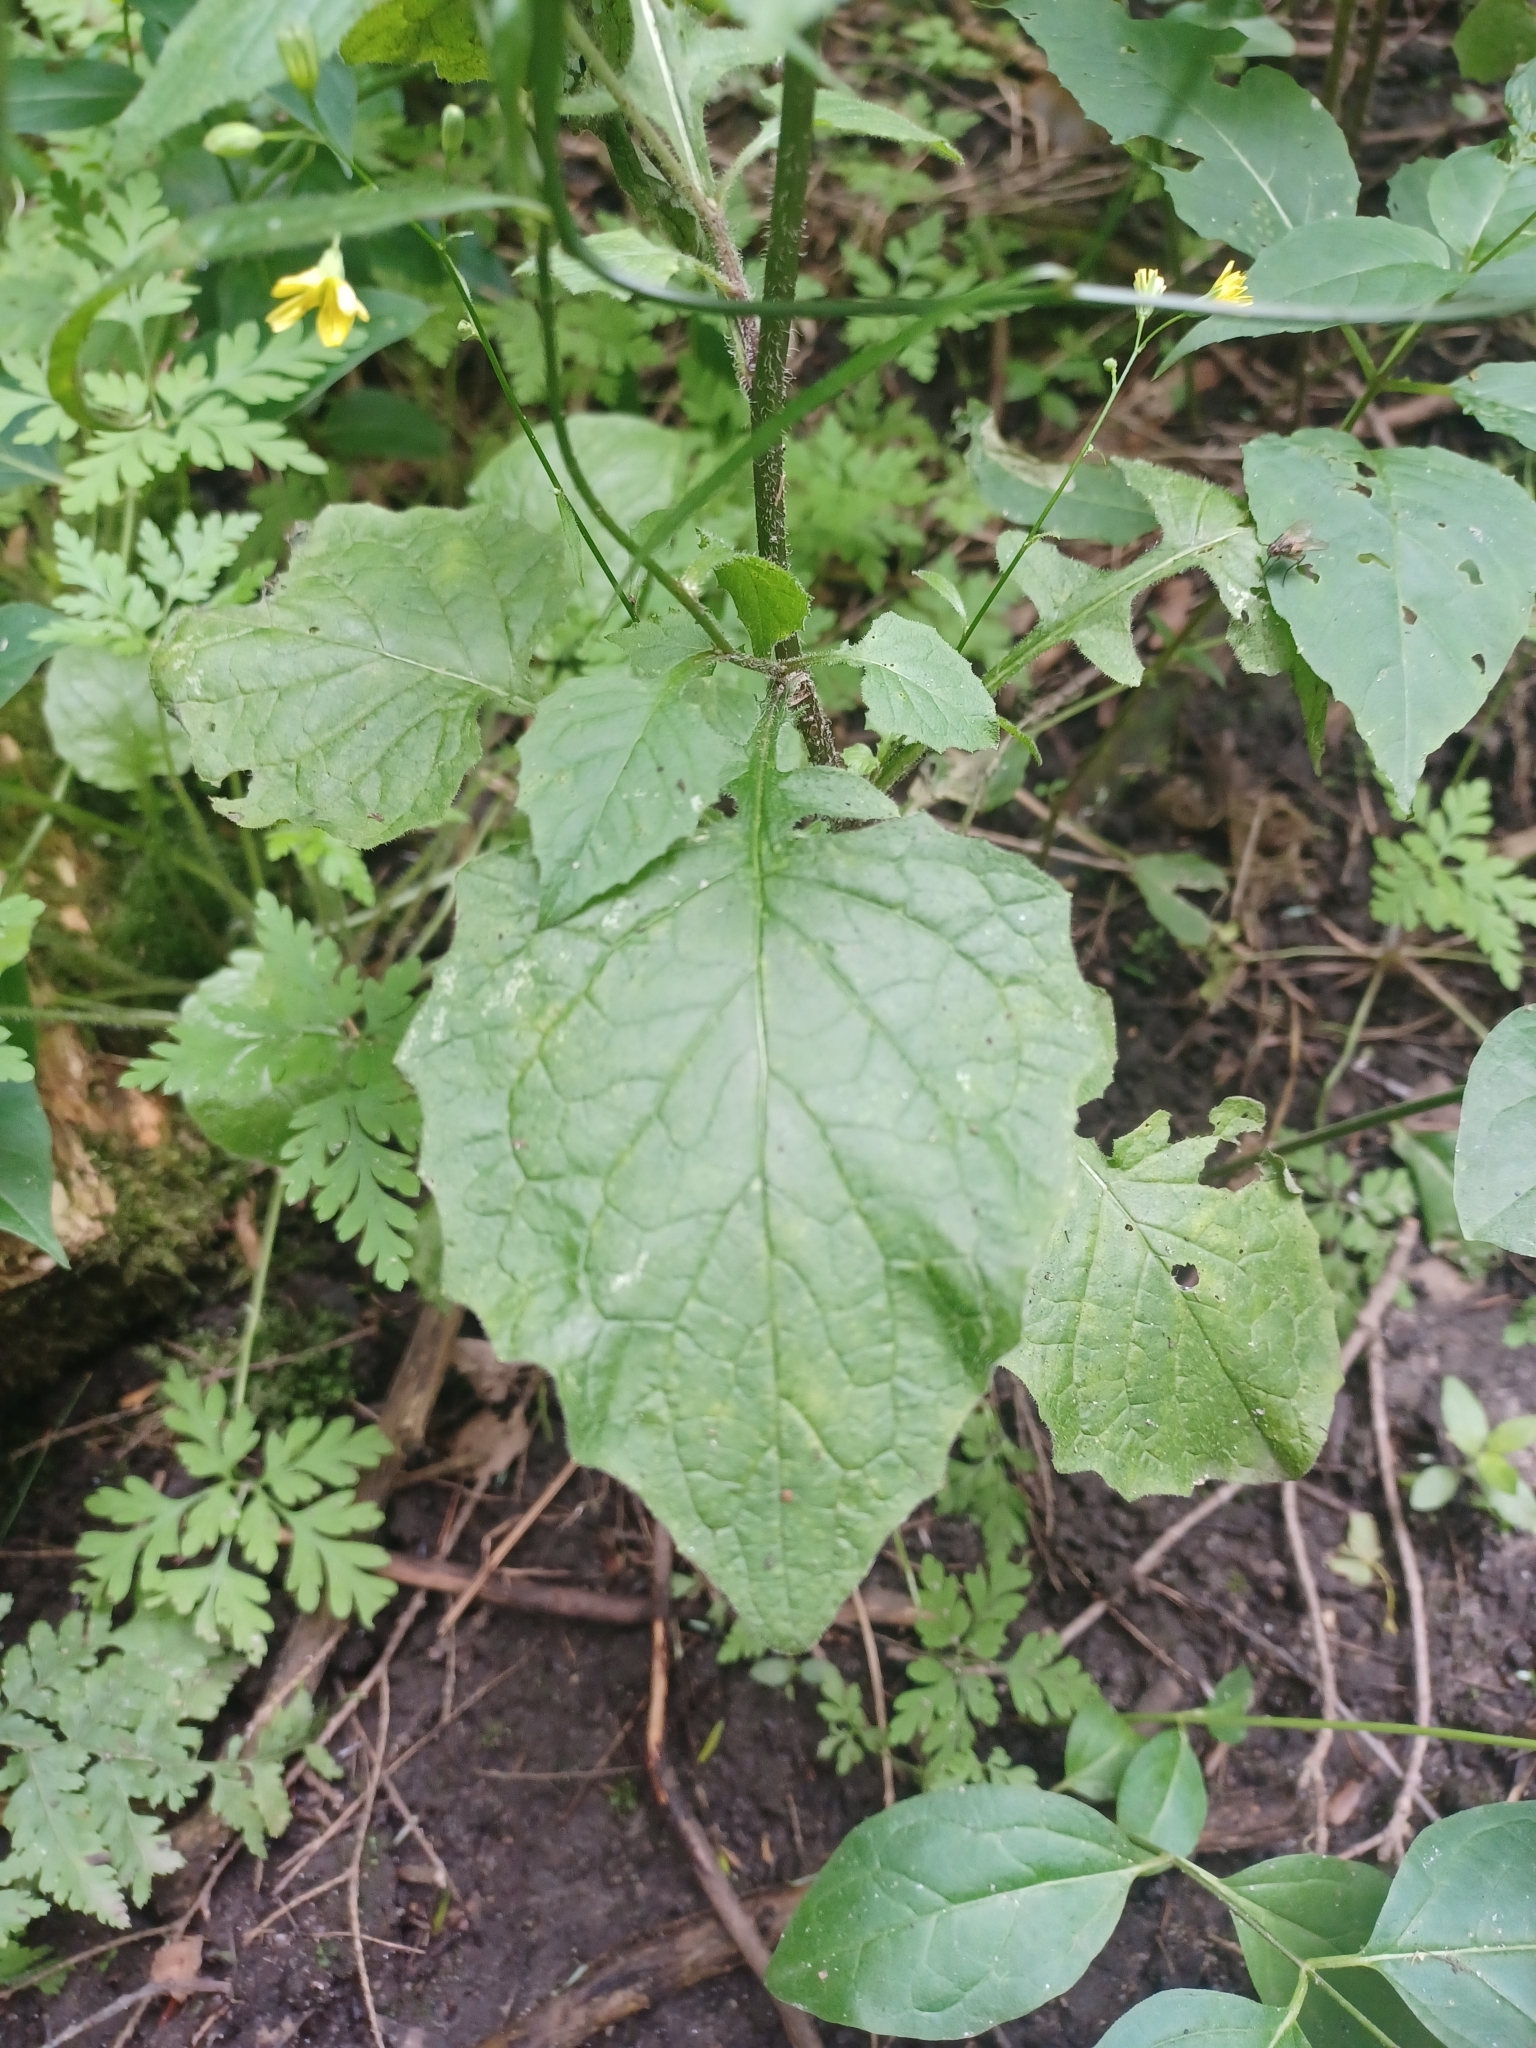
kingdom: Plantae
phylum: Tracheophyta
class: Magnoliopsida
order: Asterales
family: Asteraceae
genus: Lapsana
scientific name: Lapsana communis
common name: Nipplewort
